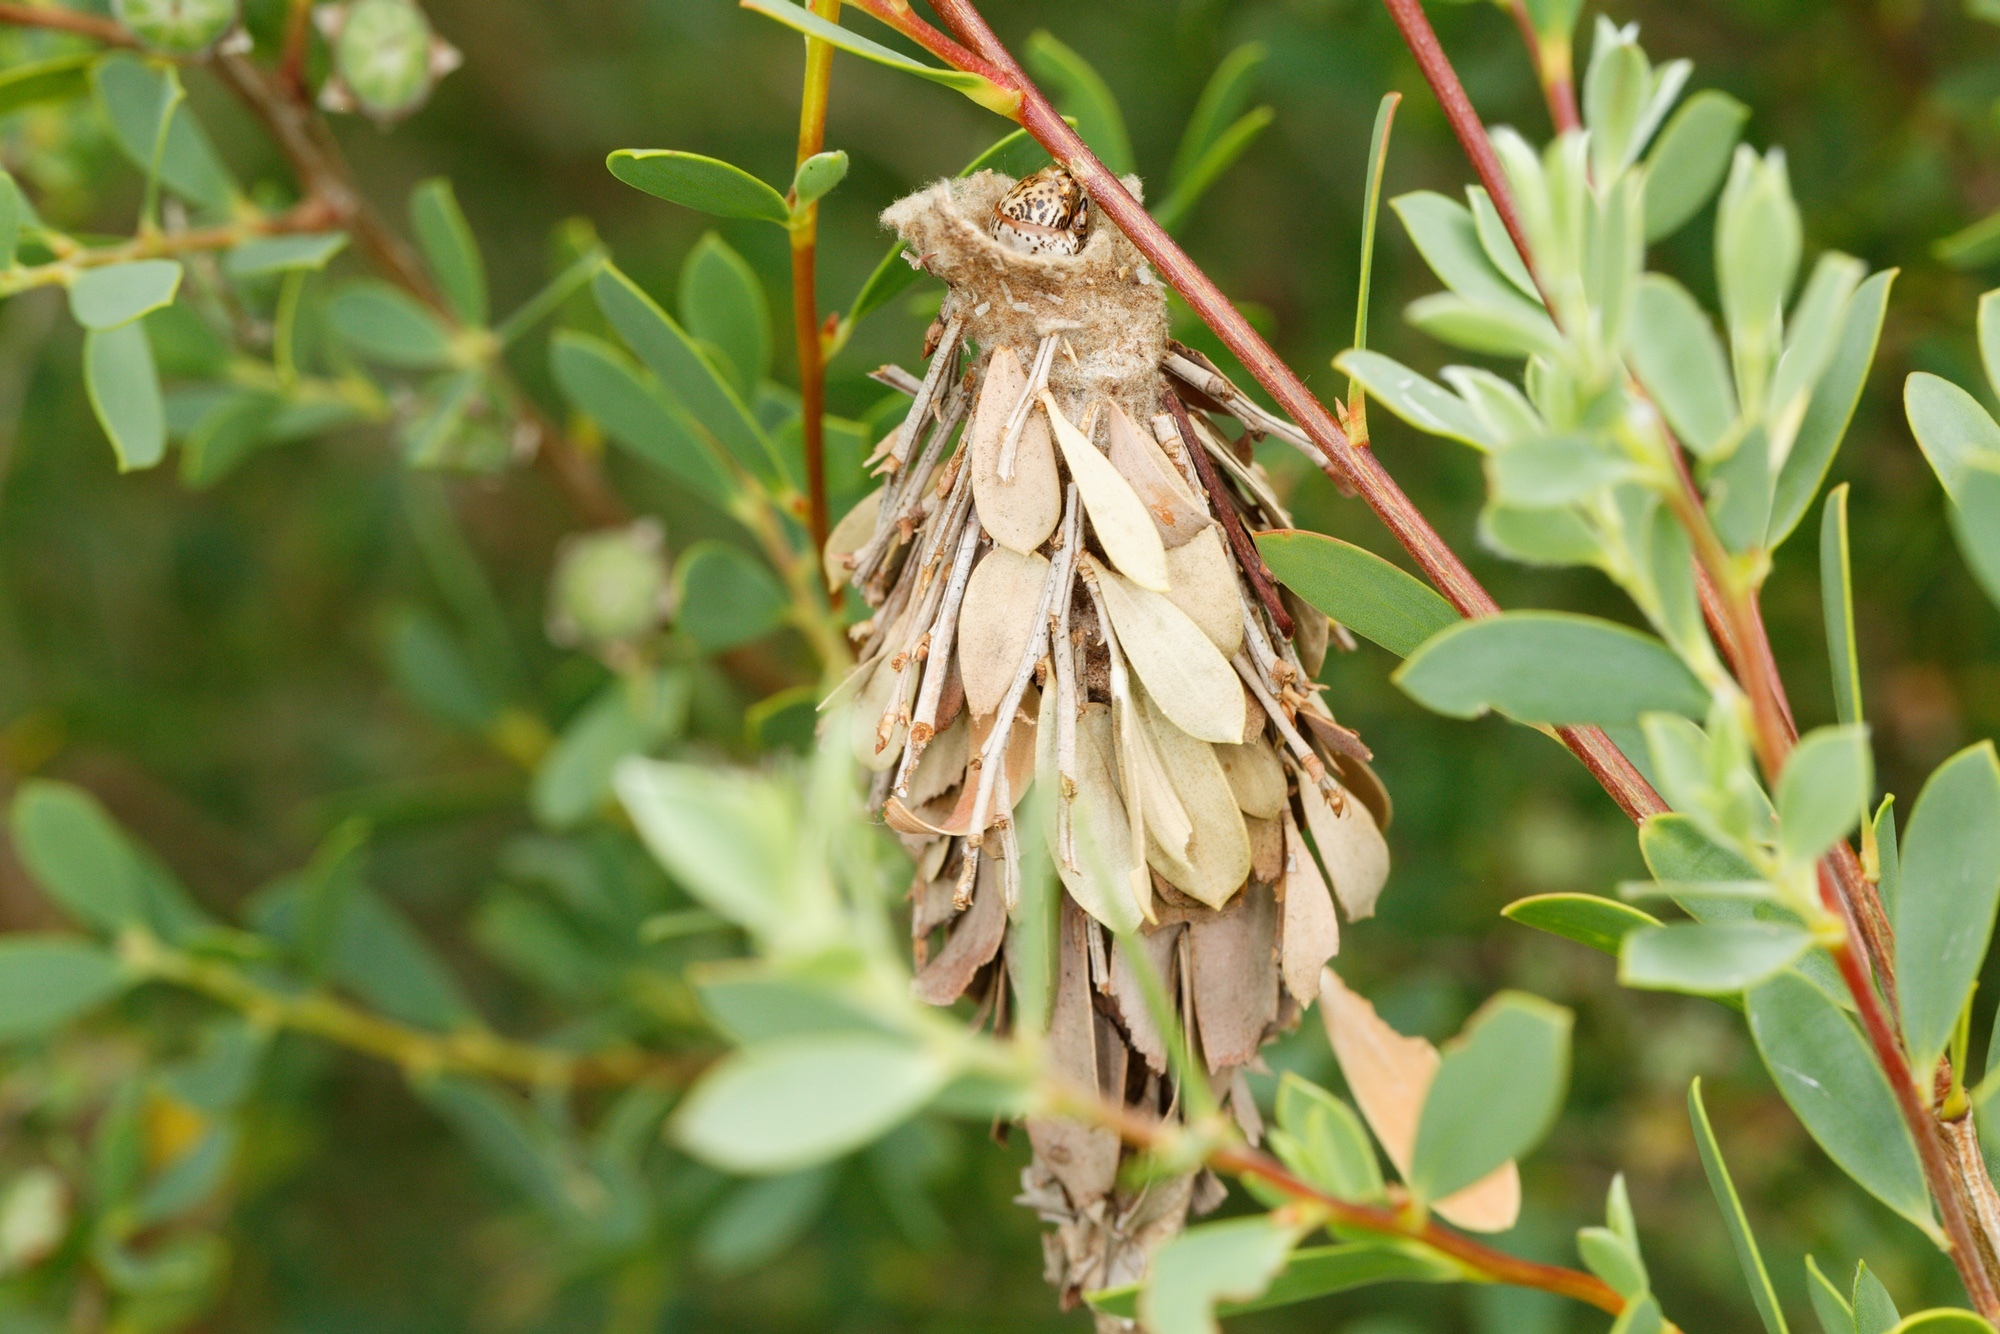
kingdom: Animalia
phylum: Arthropoda
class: Insecta
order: Lepidoptera
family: Psychidae
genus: Hyalarcta
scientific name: Hyalarcta huebneri
